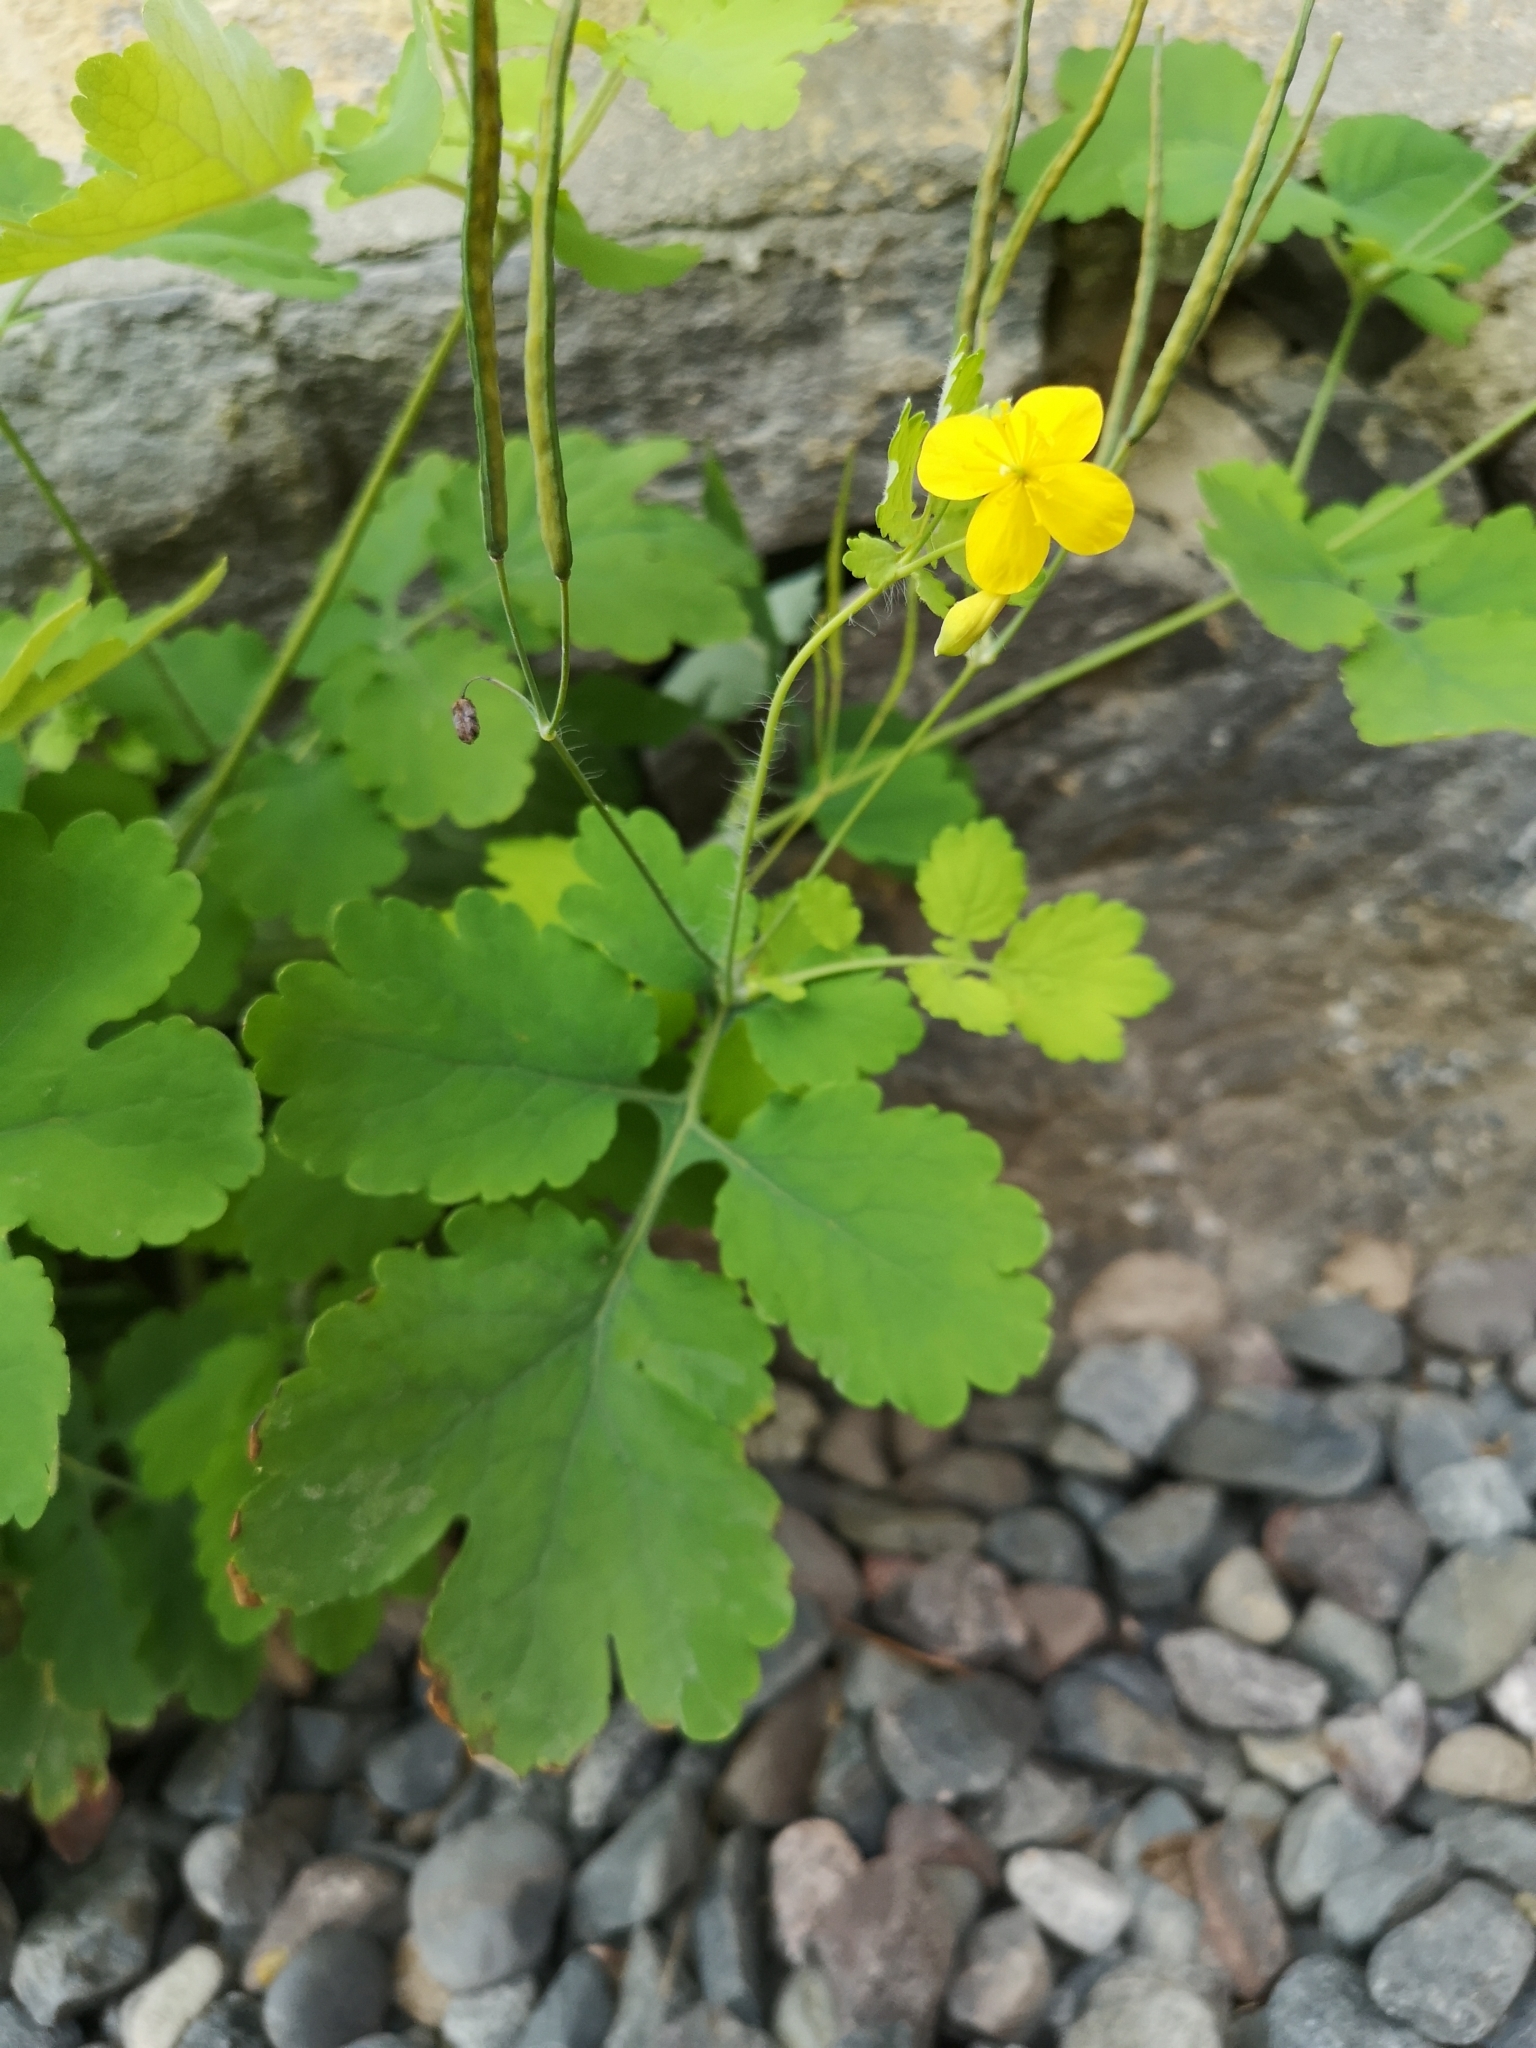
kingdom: Plantae
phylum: Tracheophyta
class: Magnoliopsida
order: Ranunculales
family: Papaveraceae
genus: Chelidonium
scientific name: Chelidonium majus
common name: Greater celandine
